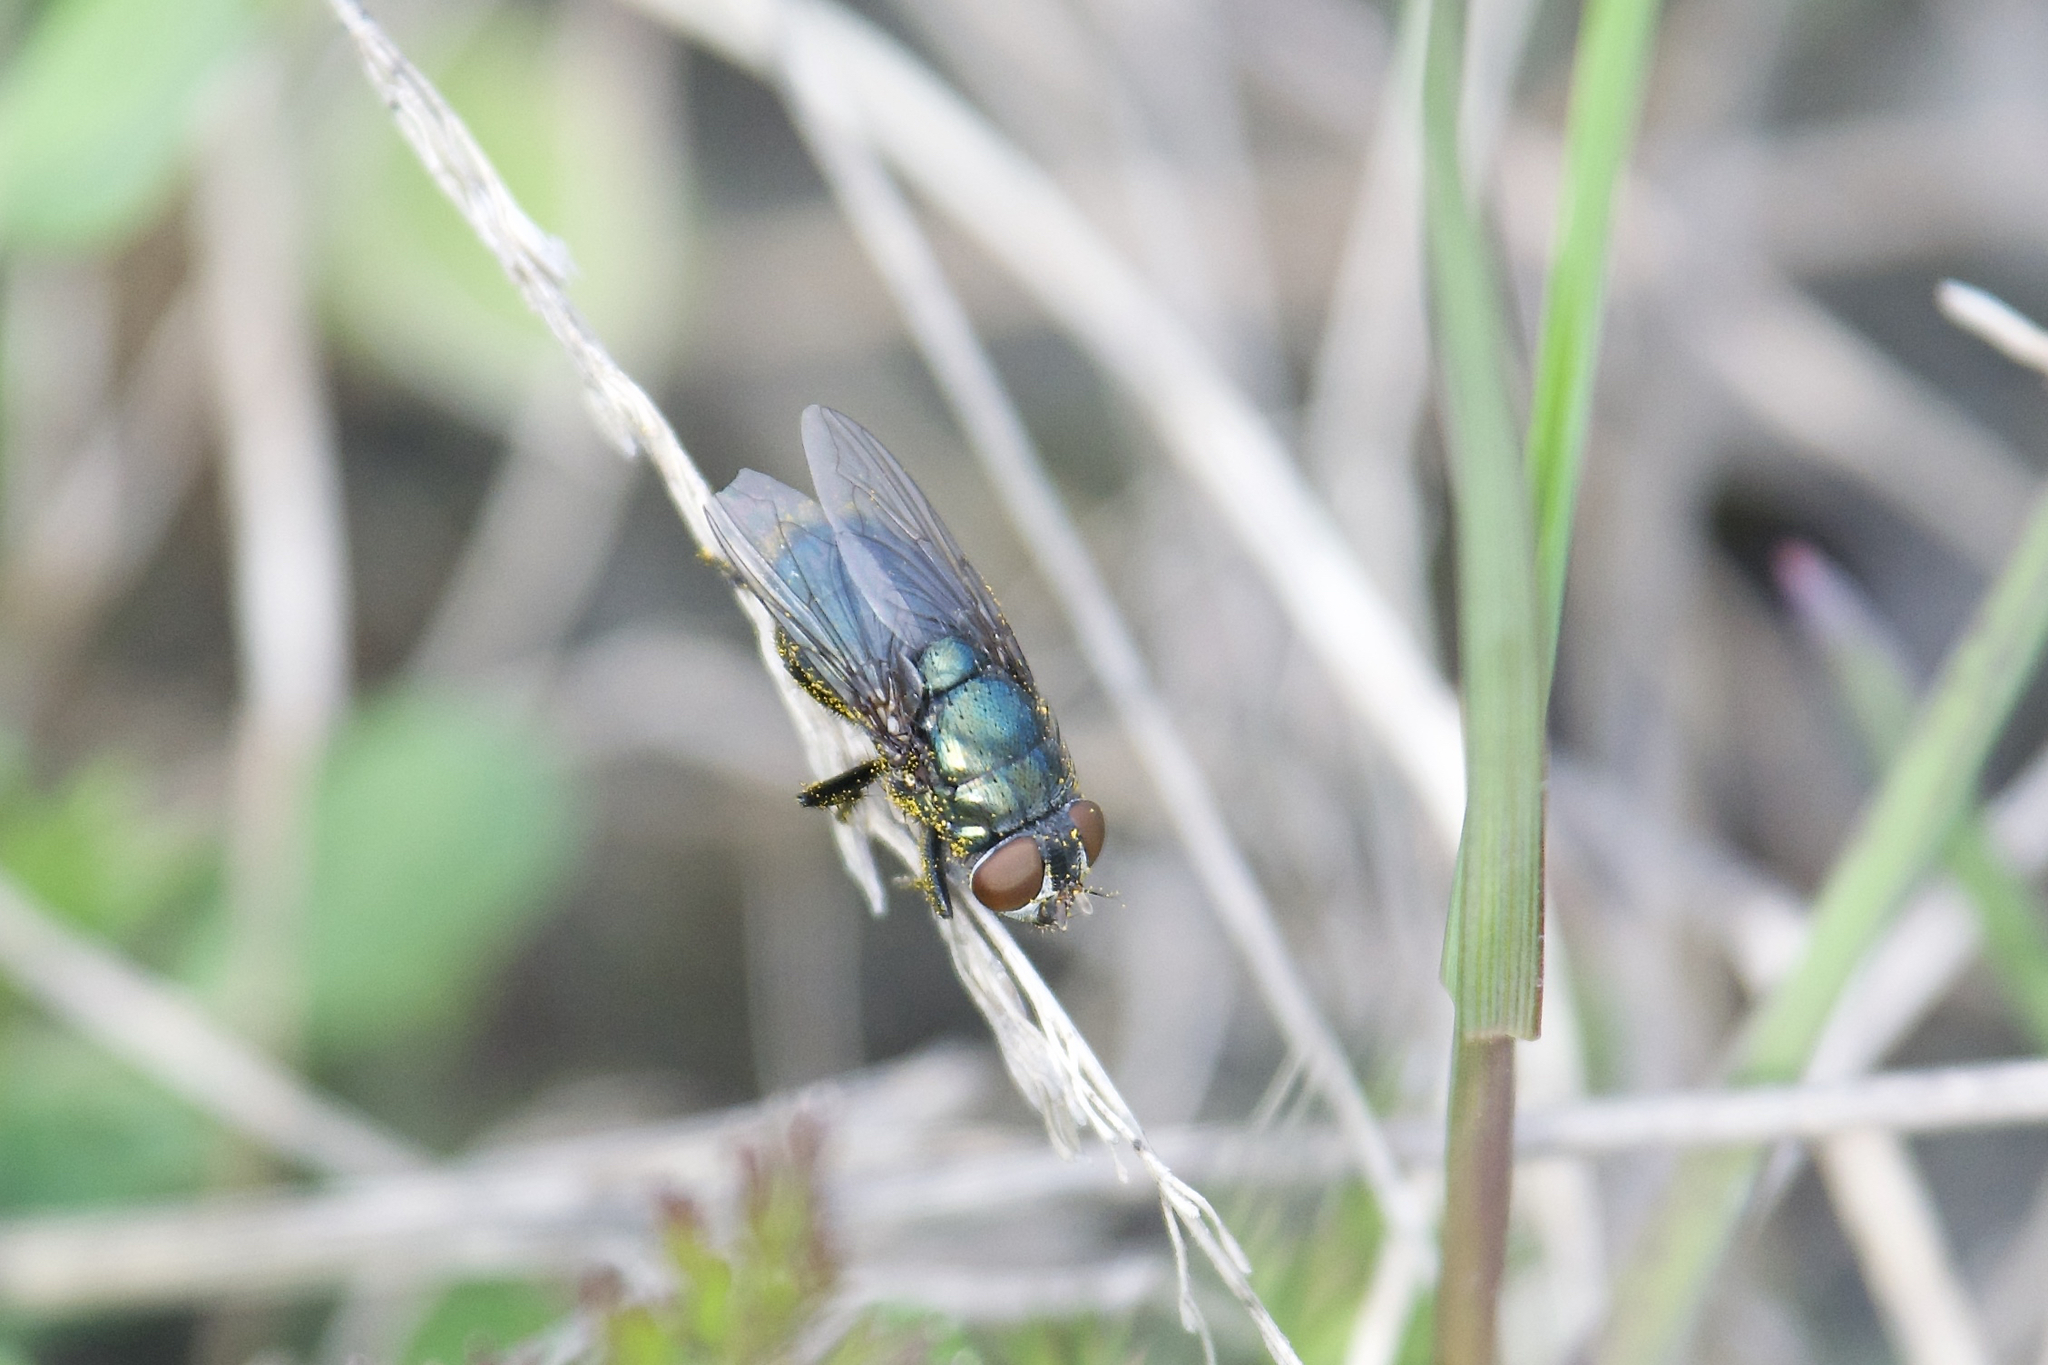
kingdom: Animalia
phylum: Arthropoda
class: Insecta
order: Diptera
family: Calliphoridae
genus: Phormia
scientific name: Phormia regina
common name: Black blow fly
